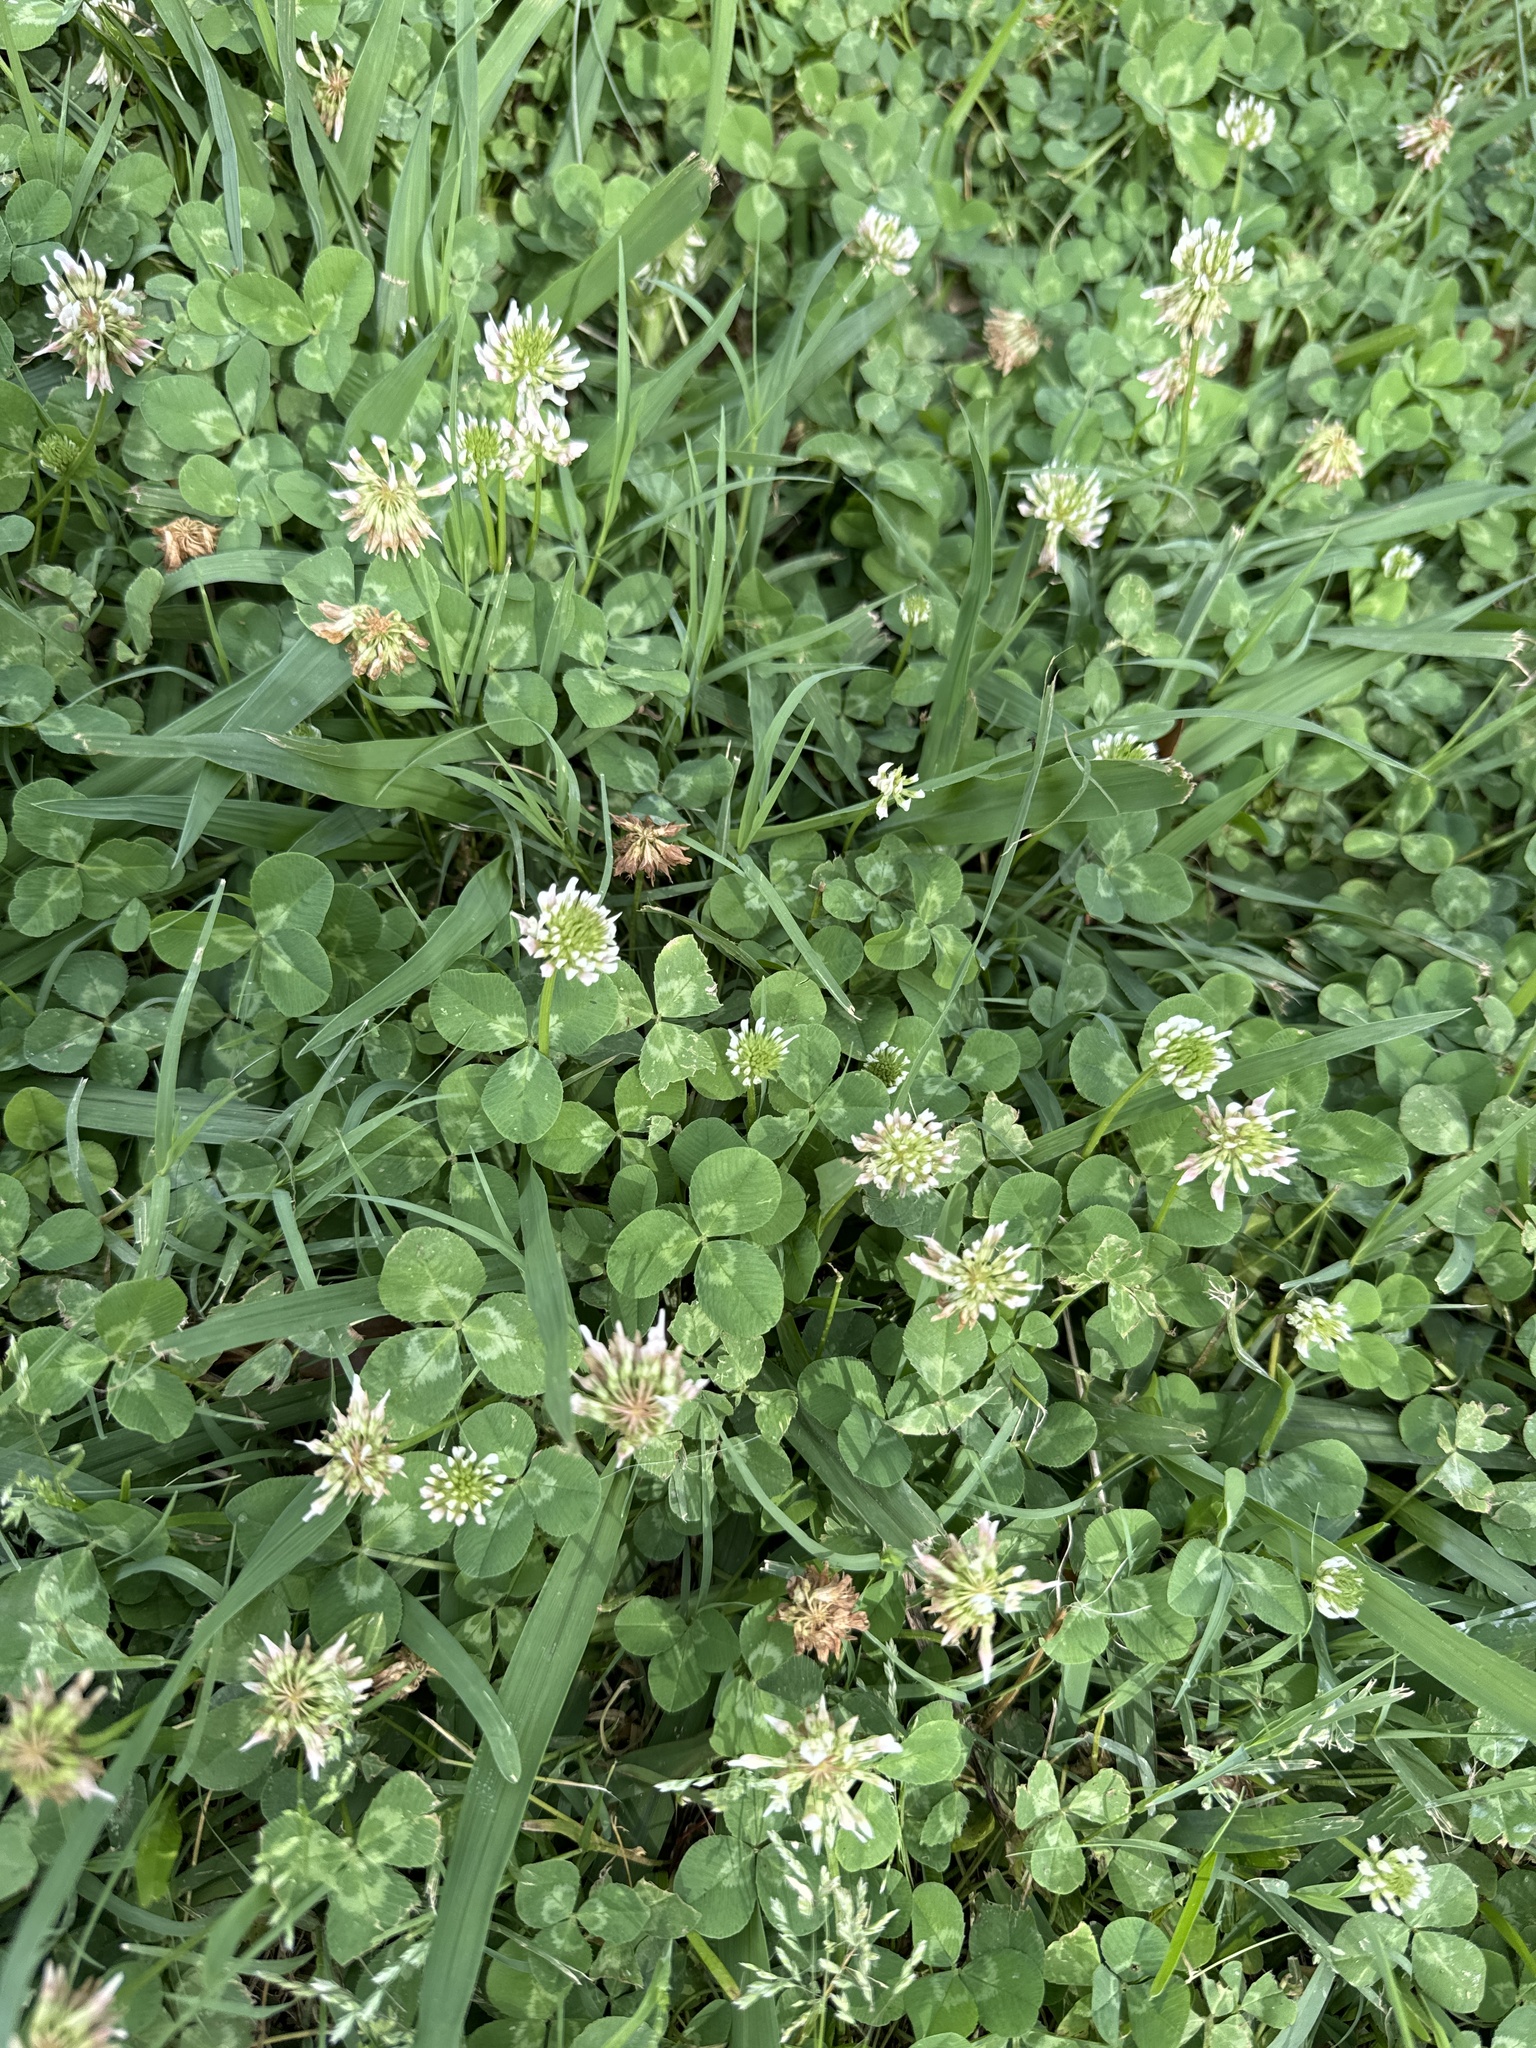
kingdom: Plantae
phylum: Tracheophyta
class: Magnoliopsida
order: Fabales
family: Fabaceae
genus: Trifolium
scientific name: Trifolium repens
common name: White clover
